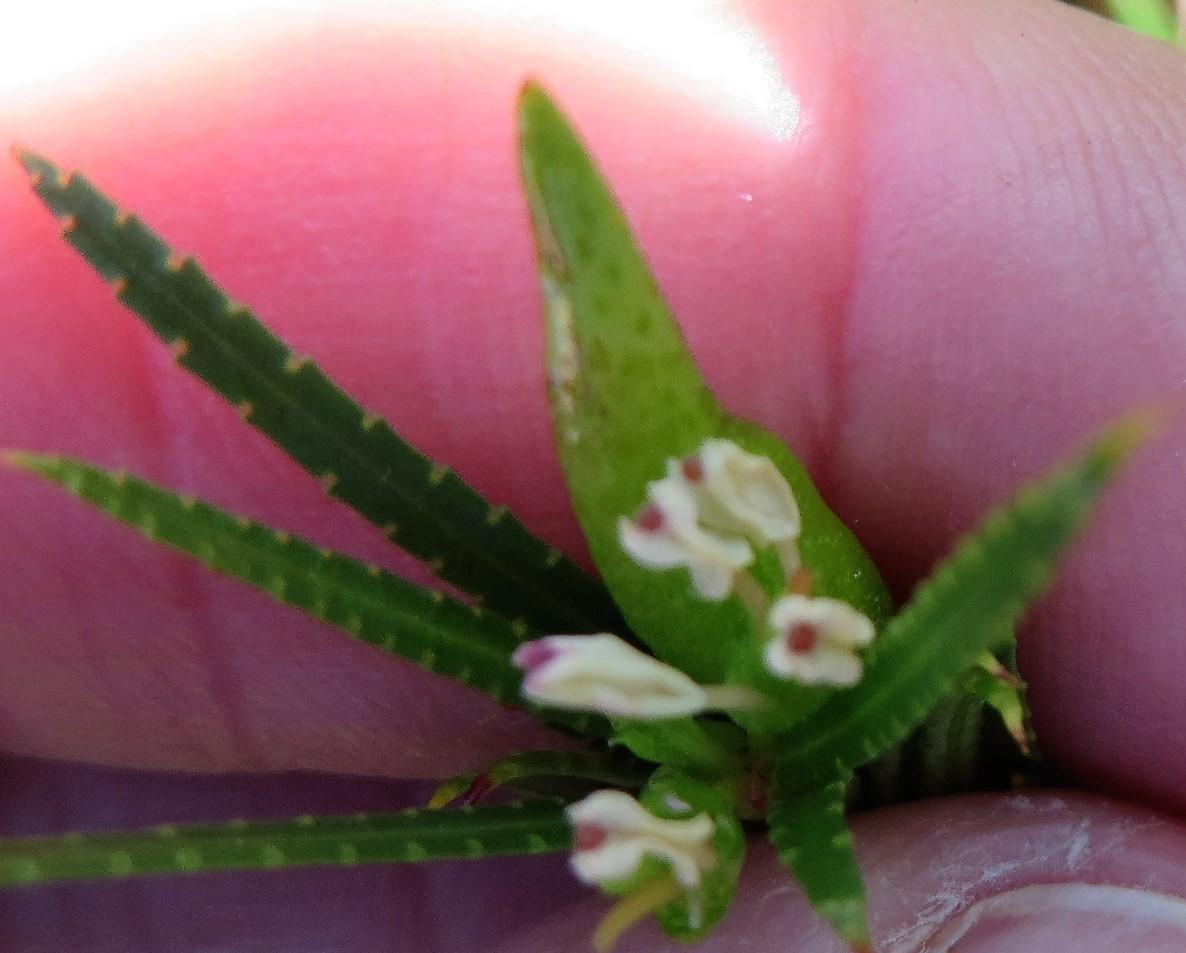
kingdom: Plantae
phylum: Tracheophyta
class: Magnoliopsida
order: Sapindales
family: Rutaceae
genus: Empleurum
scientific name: Empleurum unicapsulare
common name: False buchu
